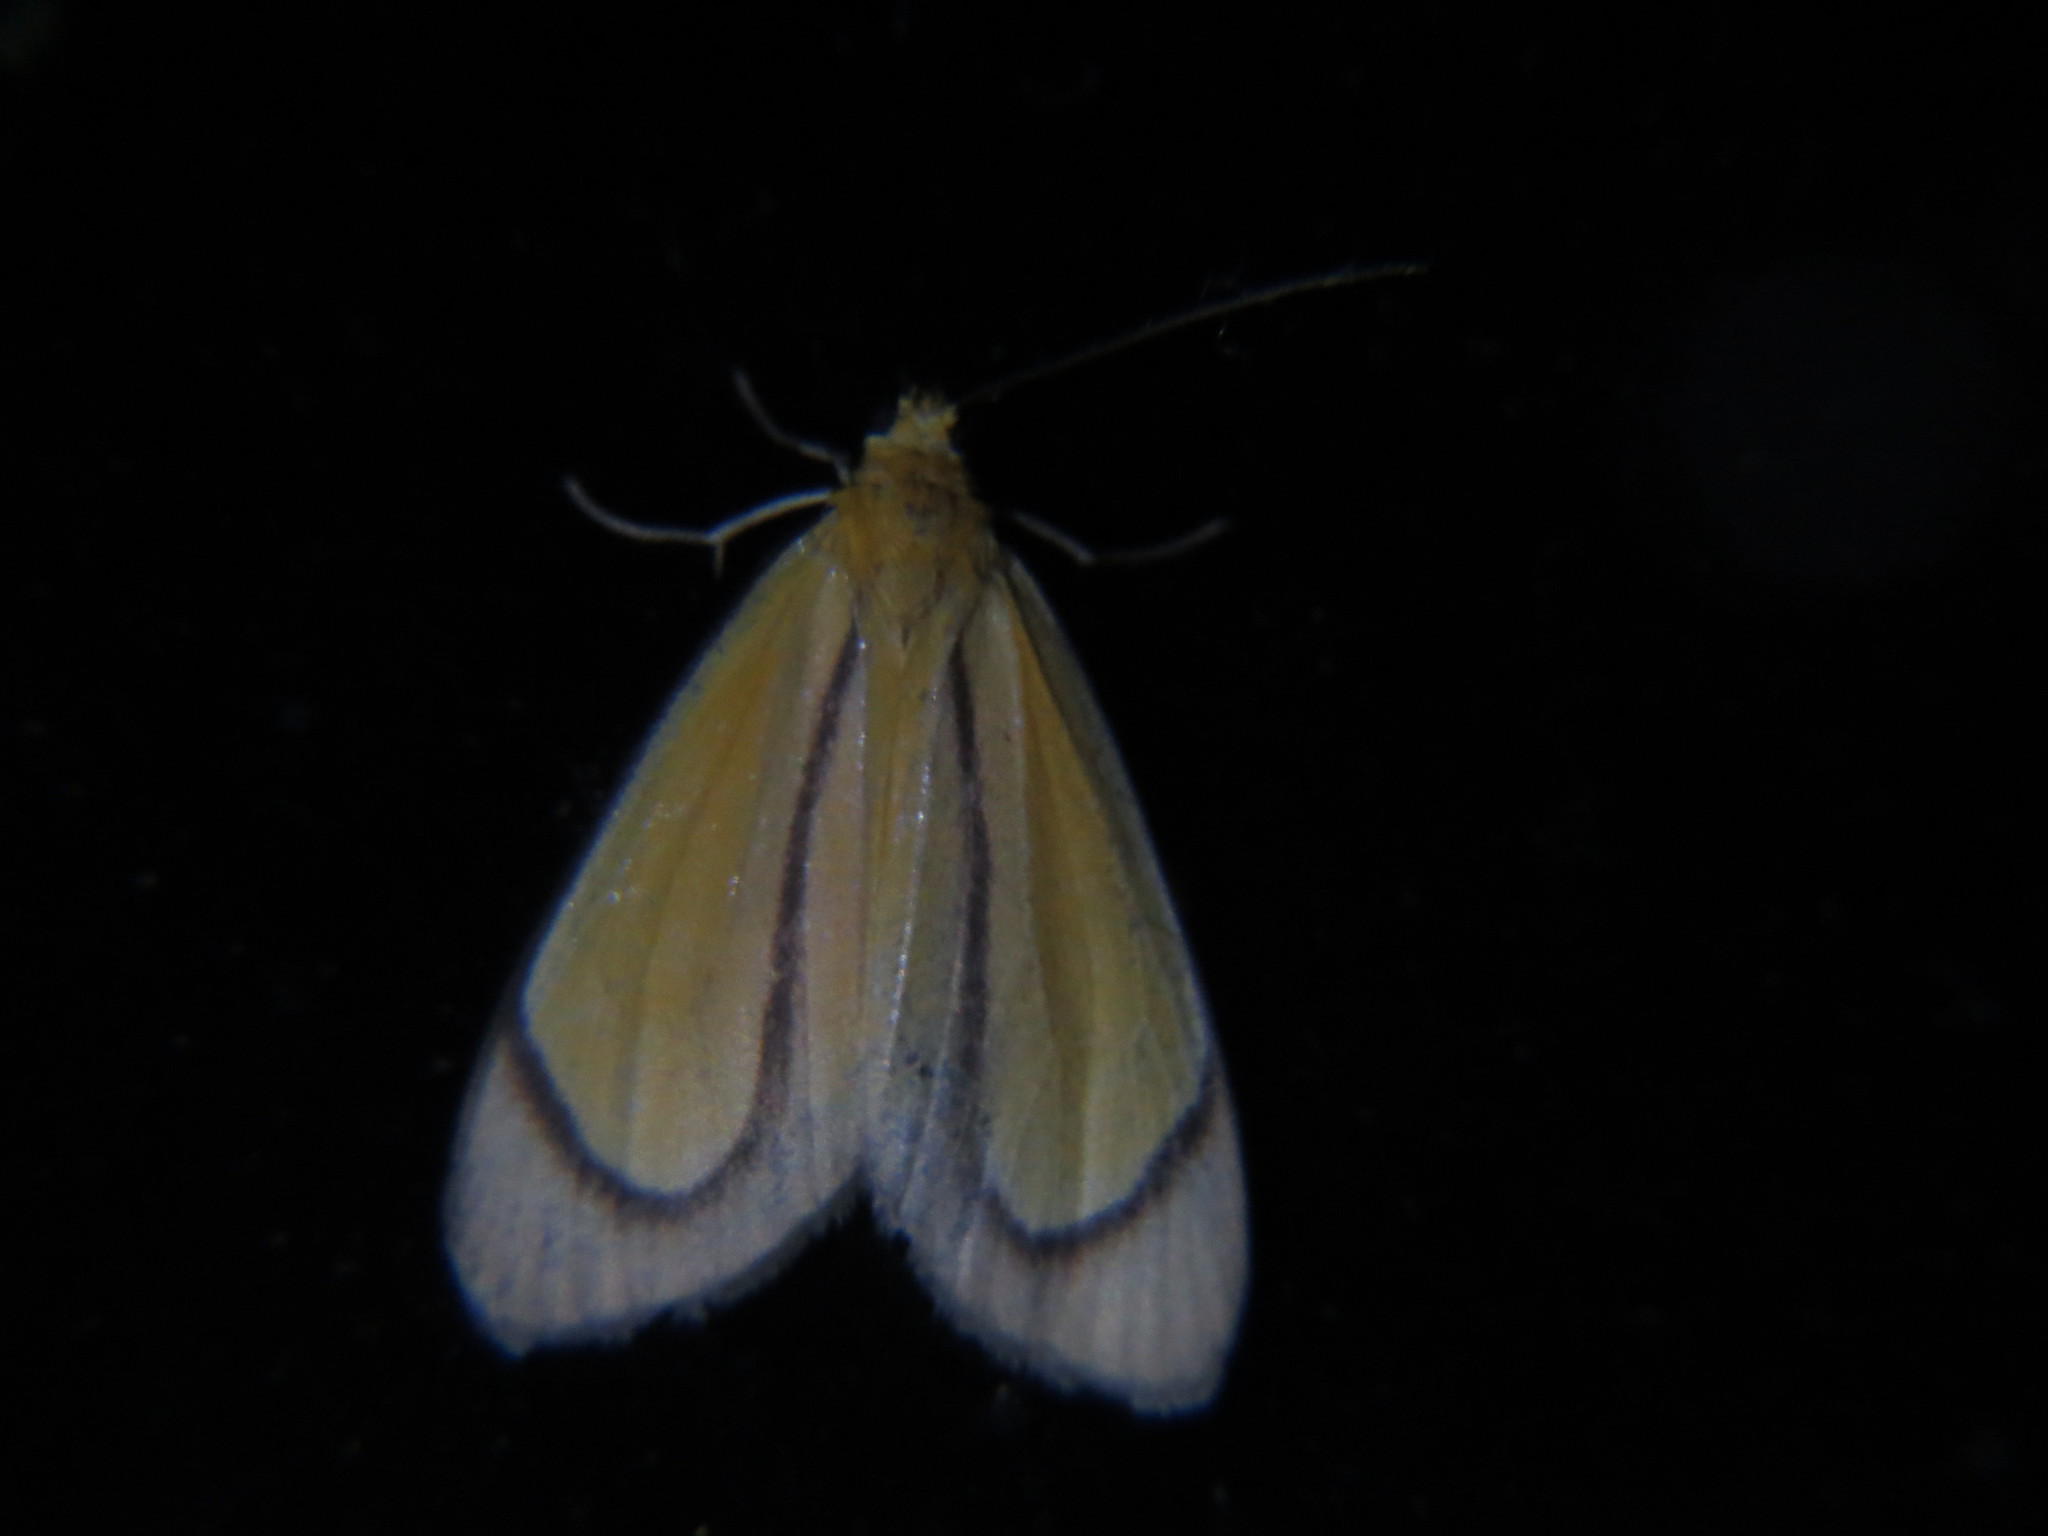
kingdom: Animalia
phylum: Arthropoda
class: Insecta
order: Lepidoptera
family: Notodontidae
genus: Oricia
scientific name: Oricia truncata
